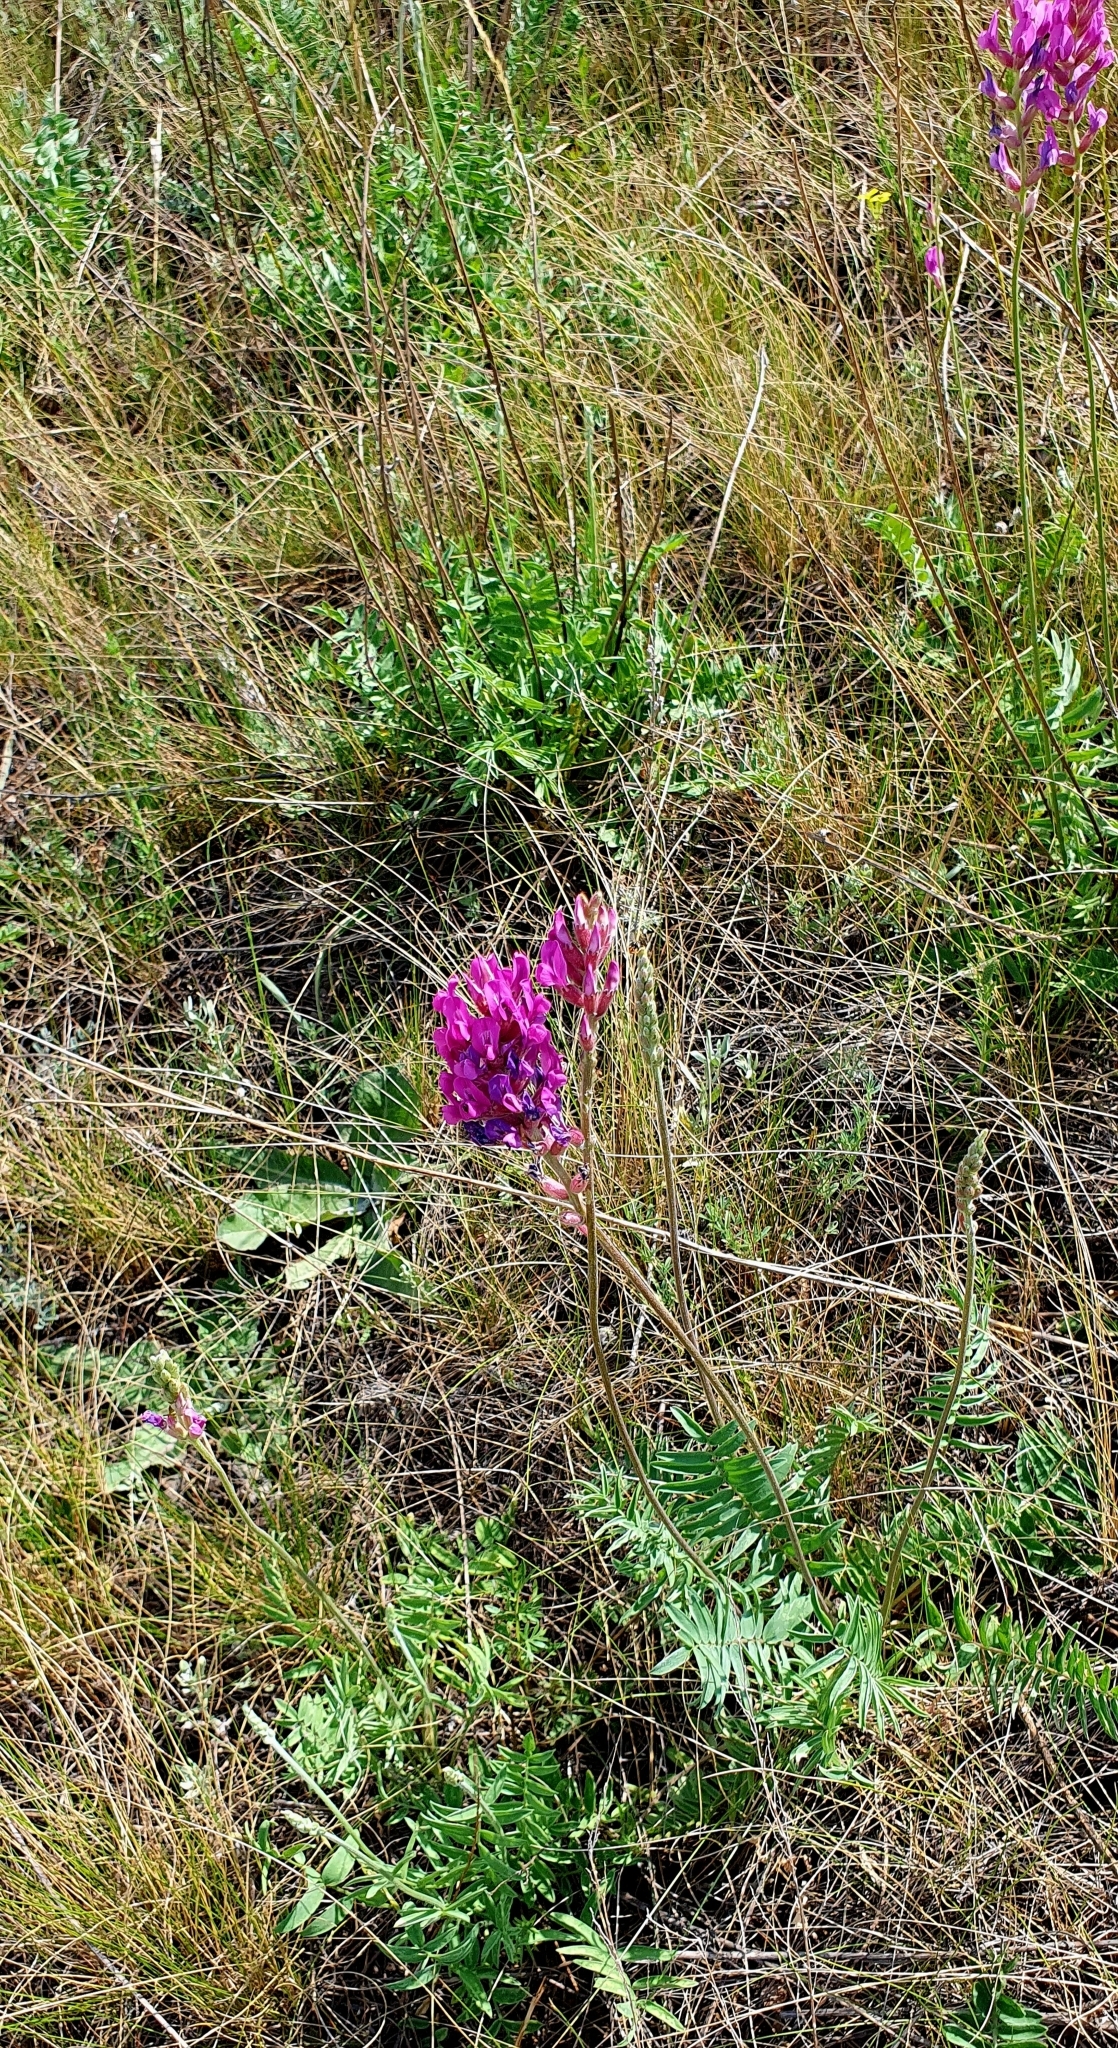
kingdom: Plantae
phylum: Tracheophyta
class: Magnoliopsida
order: Fabales
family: Fabaceae
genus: Oxytropis
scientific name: Oxytropis knjazevii
